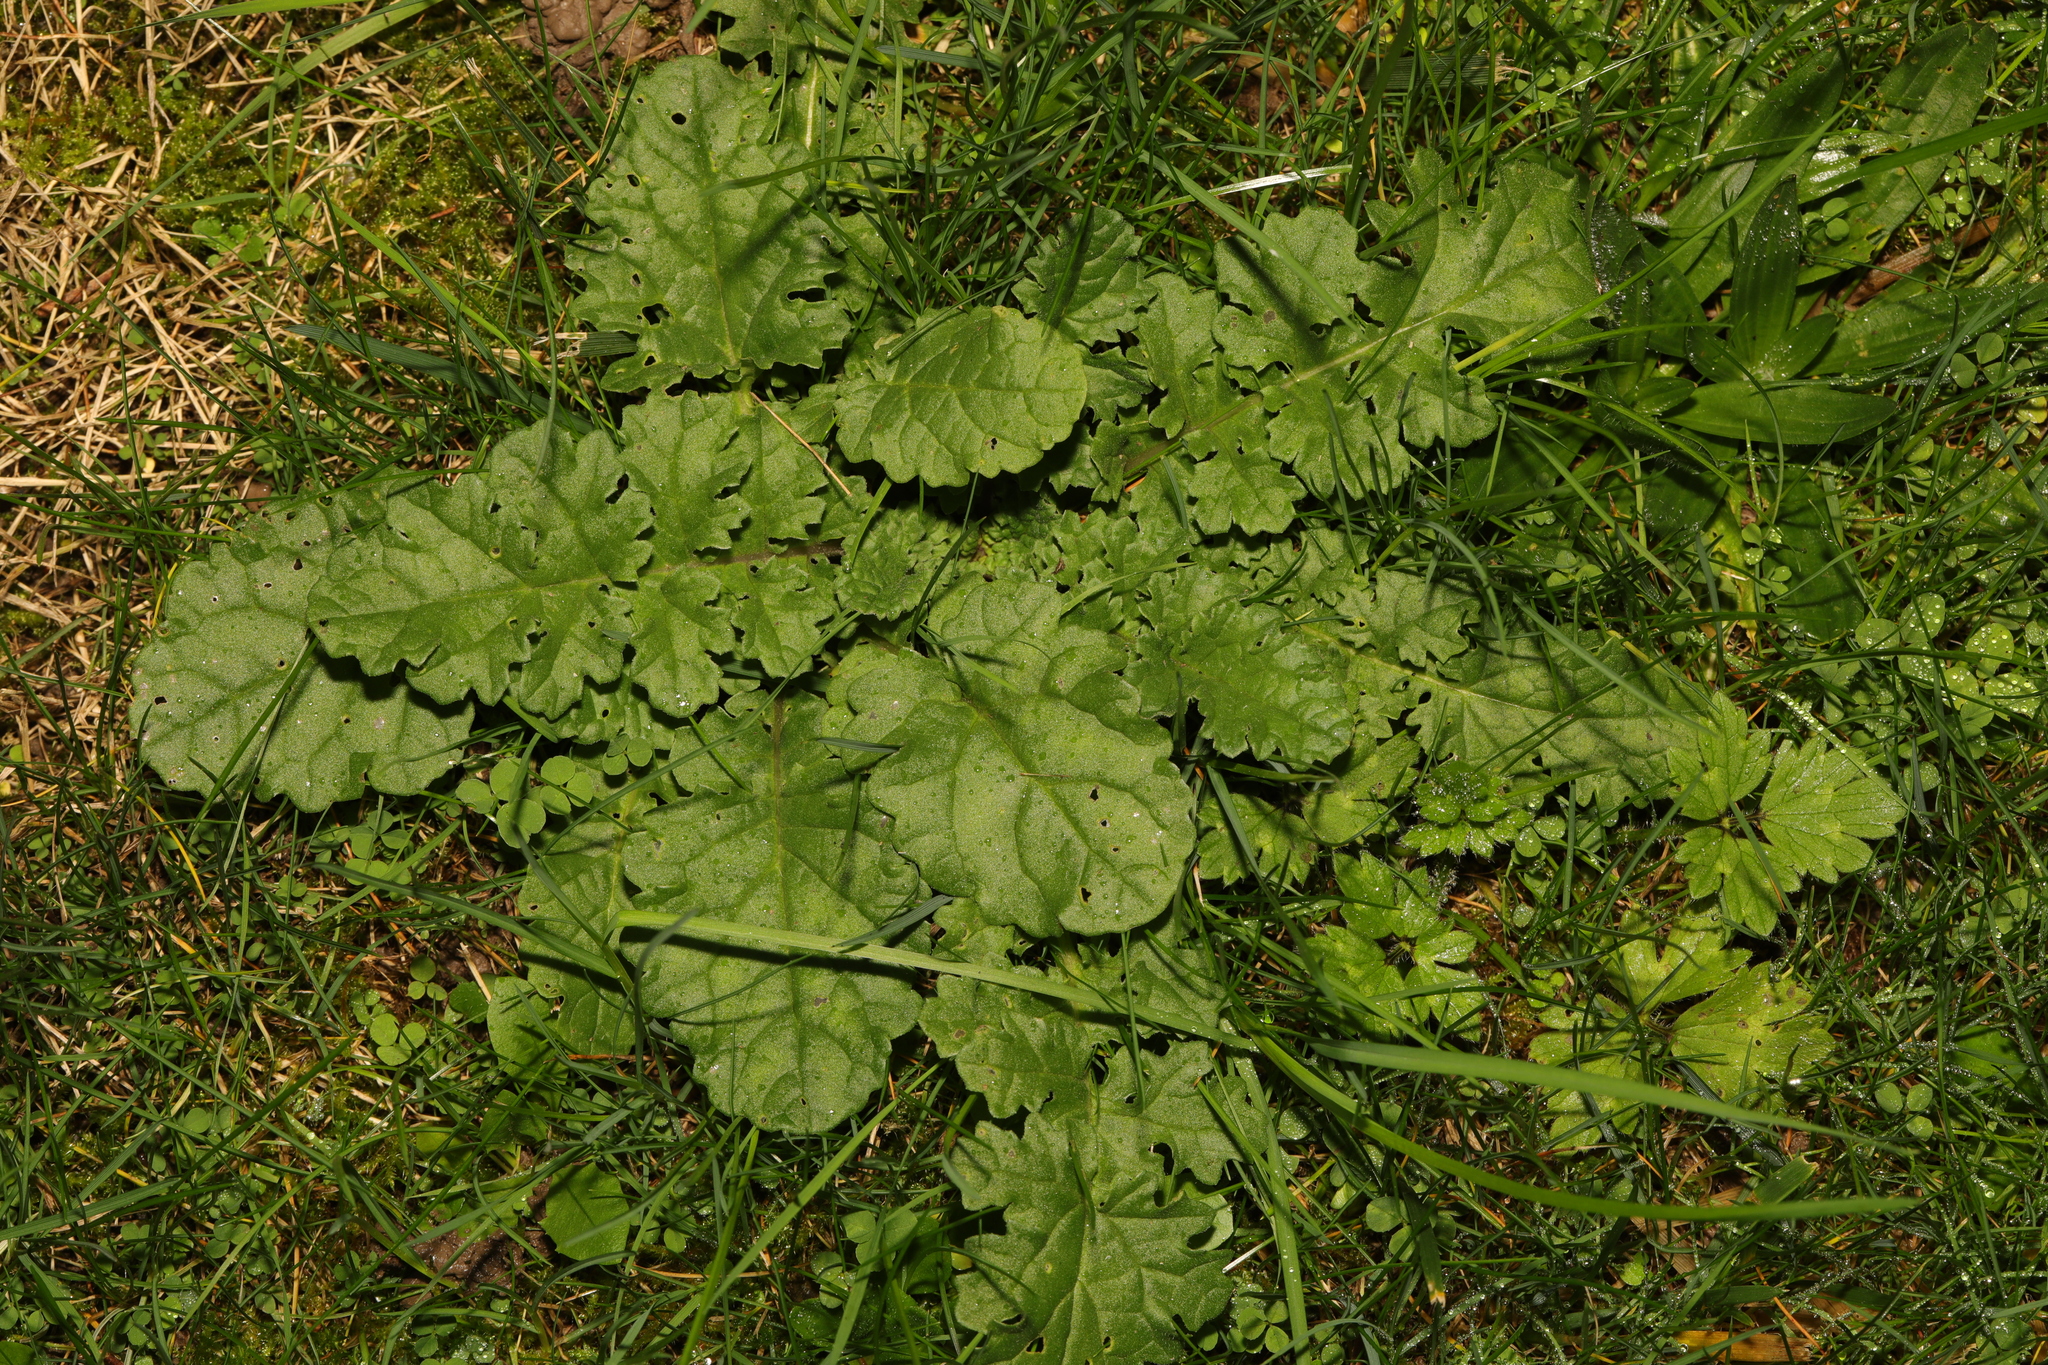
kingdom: Plantae
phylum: Tracheophyta
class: Magnoliopsida
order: Asterales
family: Asteraceae
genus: Jacobaea
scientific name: Jacobaea vulgaris
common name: Stinking willie
